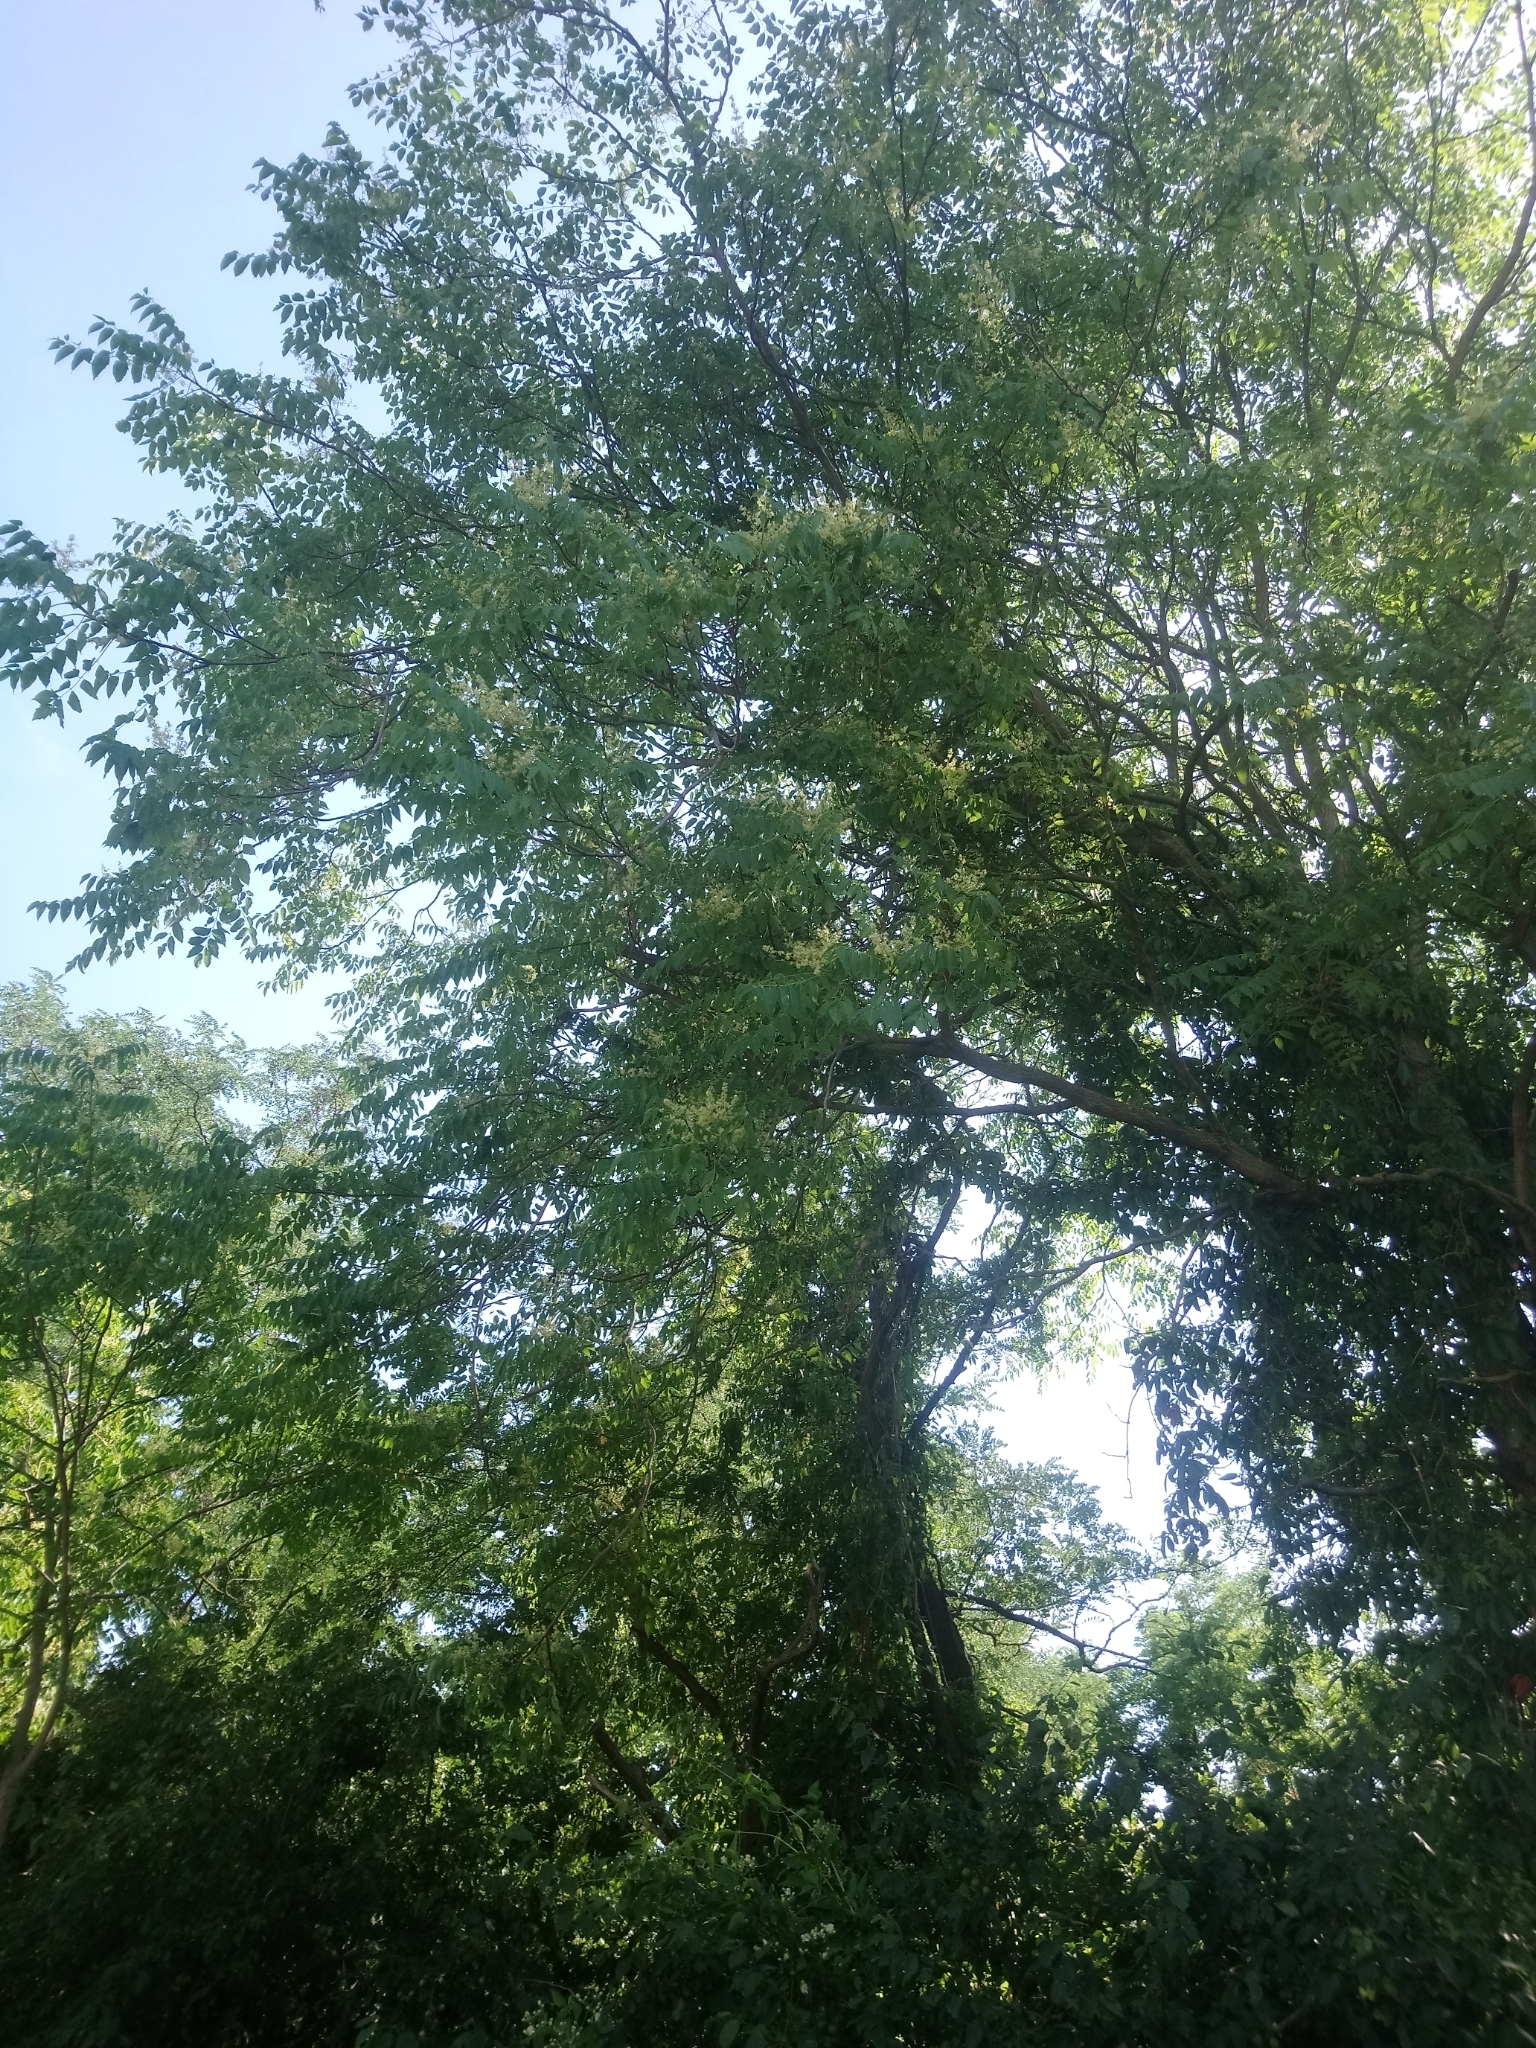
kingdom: Plantae
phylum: Tracheophyta
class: Magnoliopsida
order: Sapindales
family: Simaroubaceae
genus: Ailanthus
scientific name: Ailanthus altissima
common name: Tree-of-heaven
